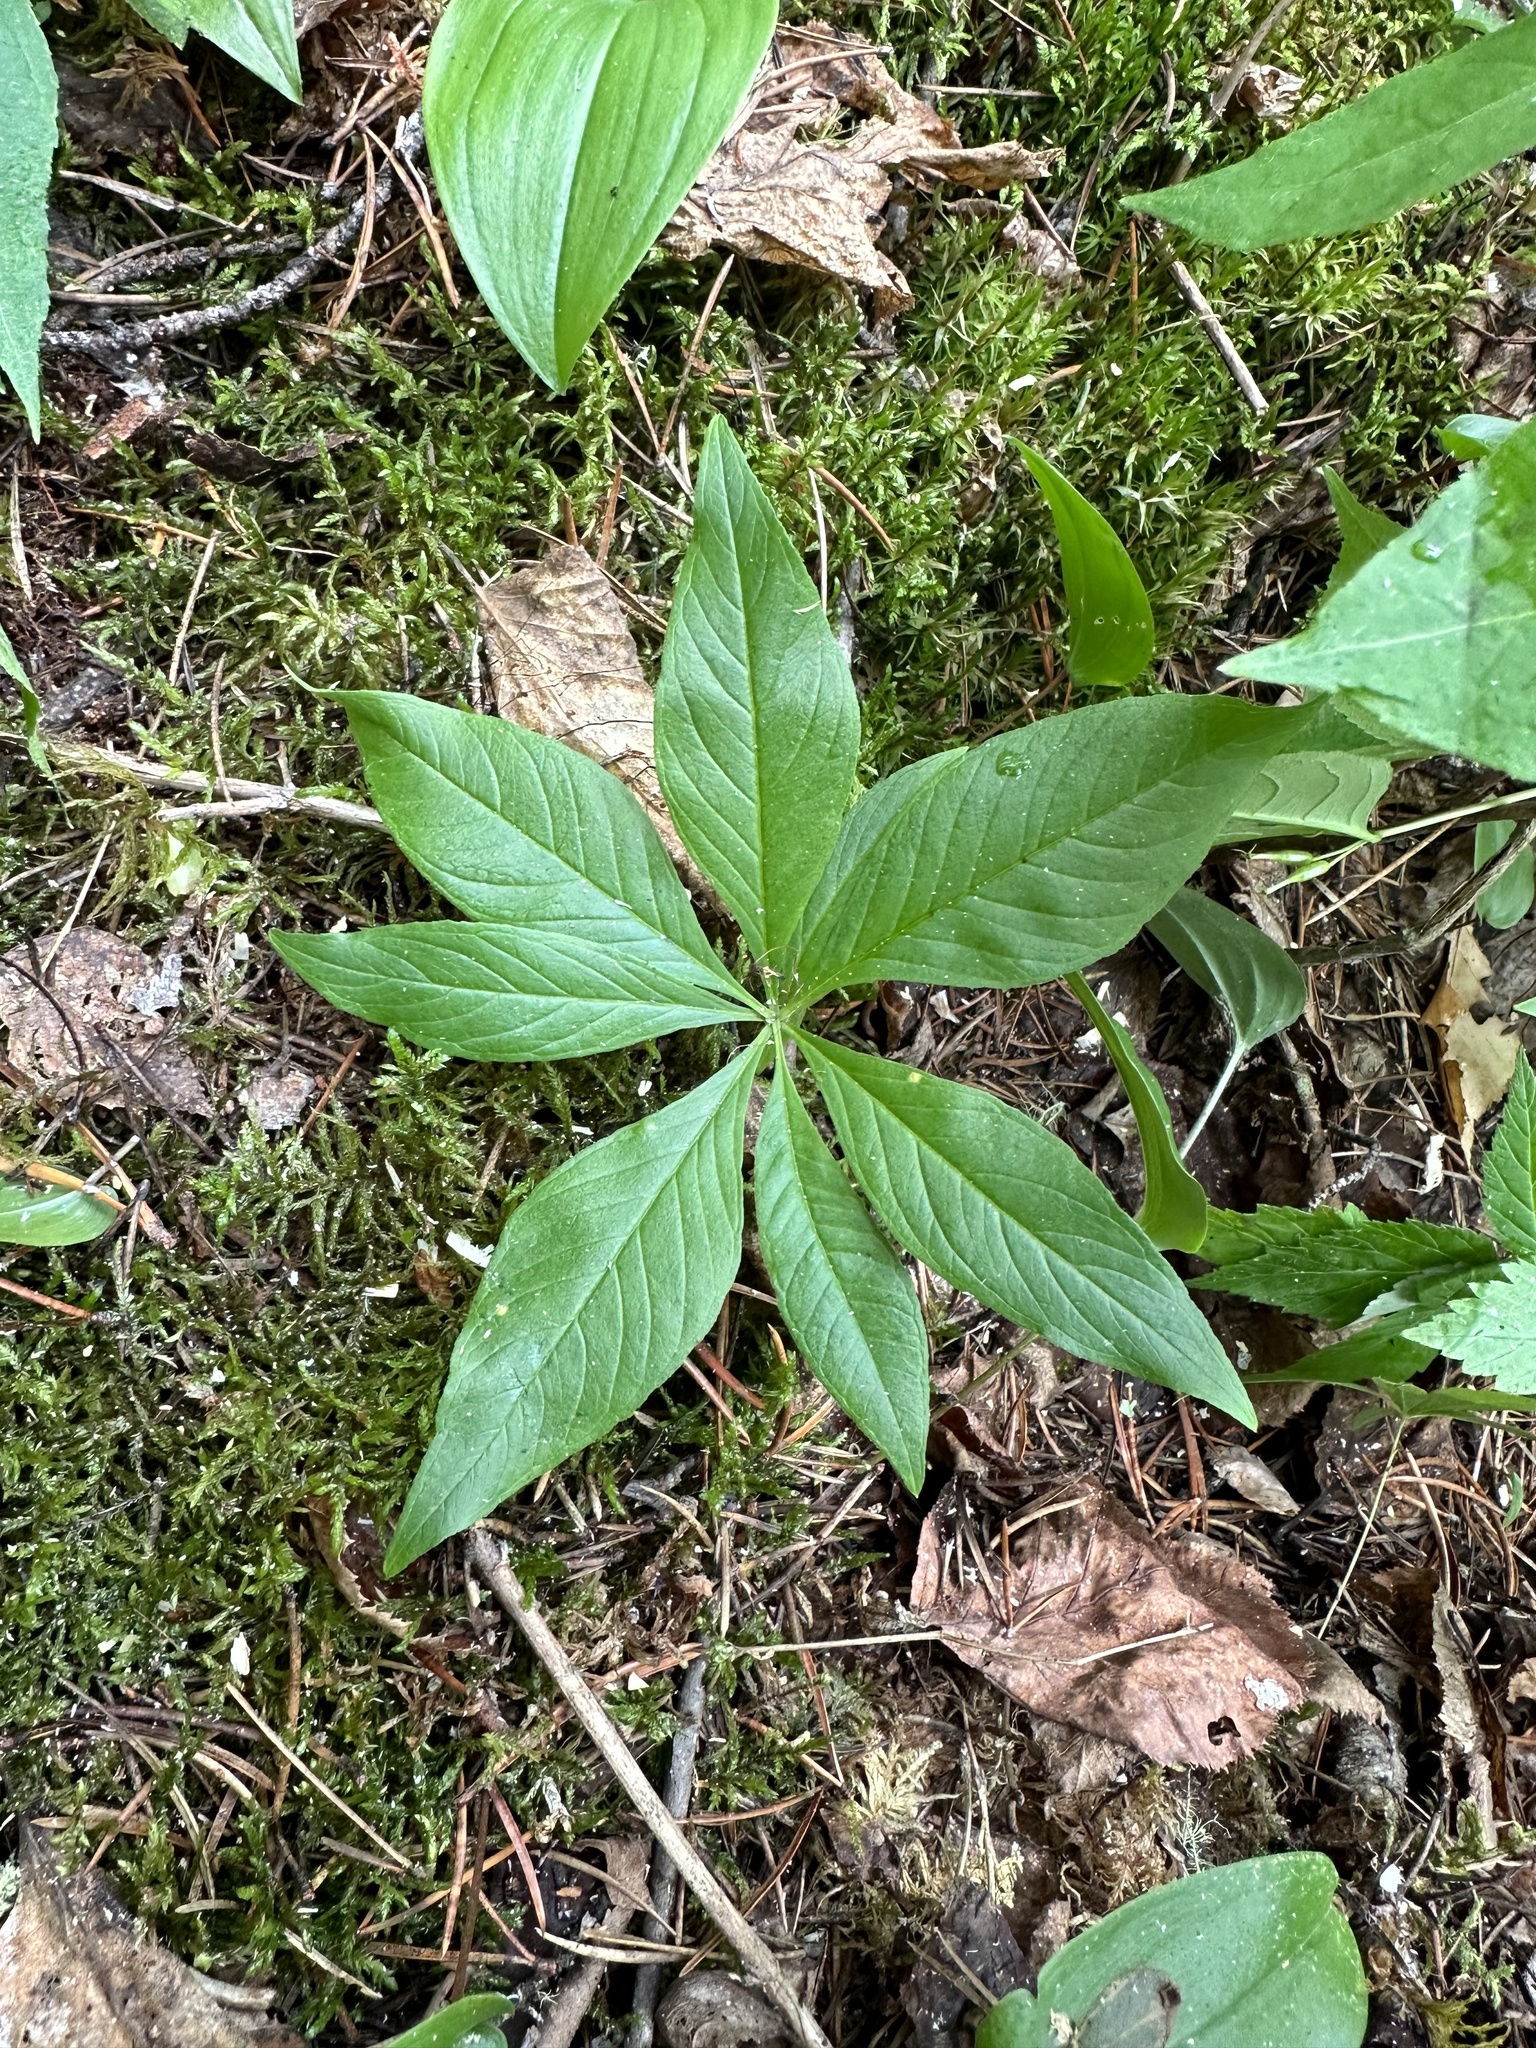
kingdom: Plantae
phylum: Tracheophyta
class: Magnoliopsida
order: Ericales
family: Primulaceae
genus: Lysimachia
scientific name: Lysimachia borealis
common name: American starflower
